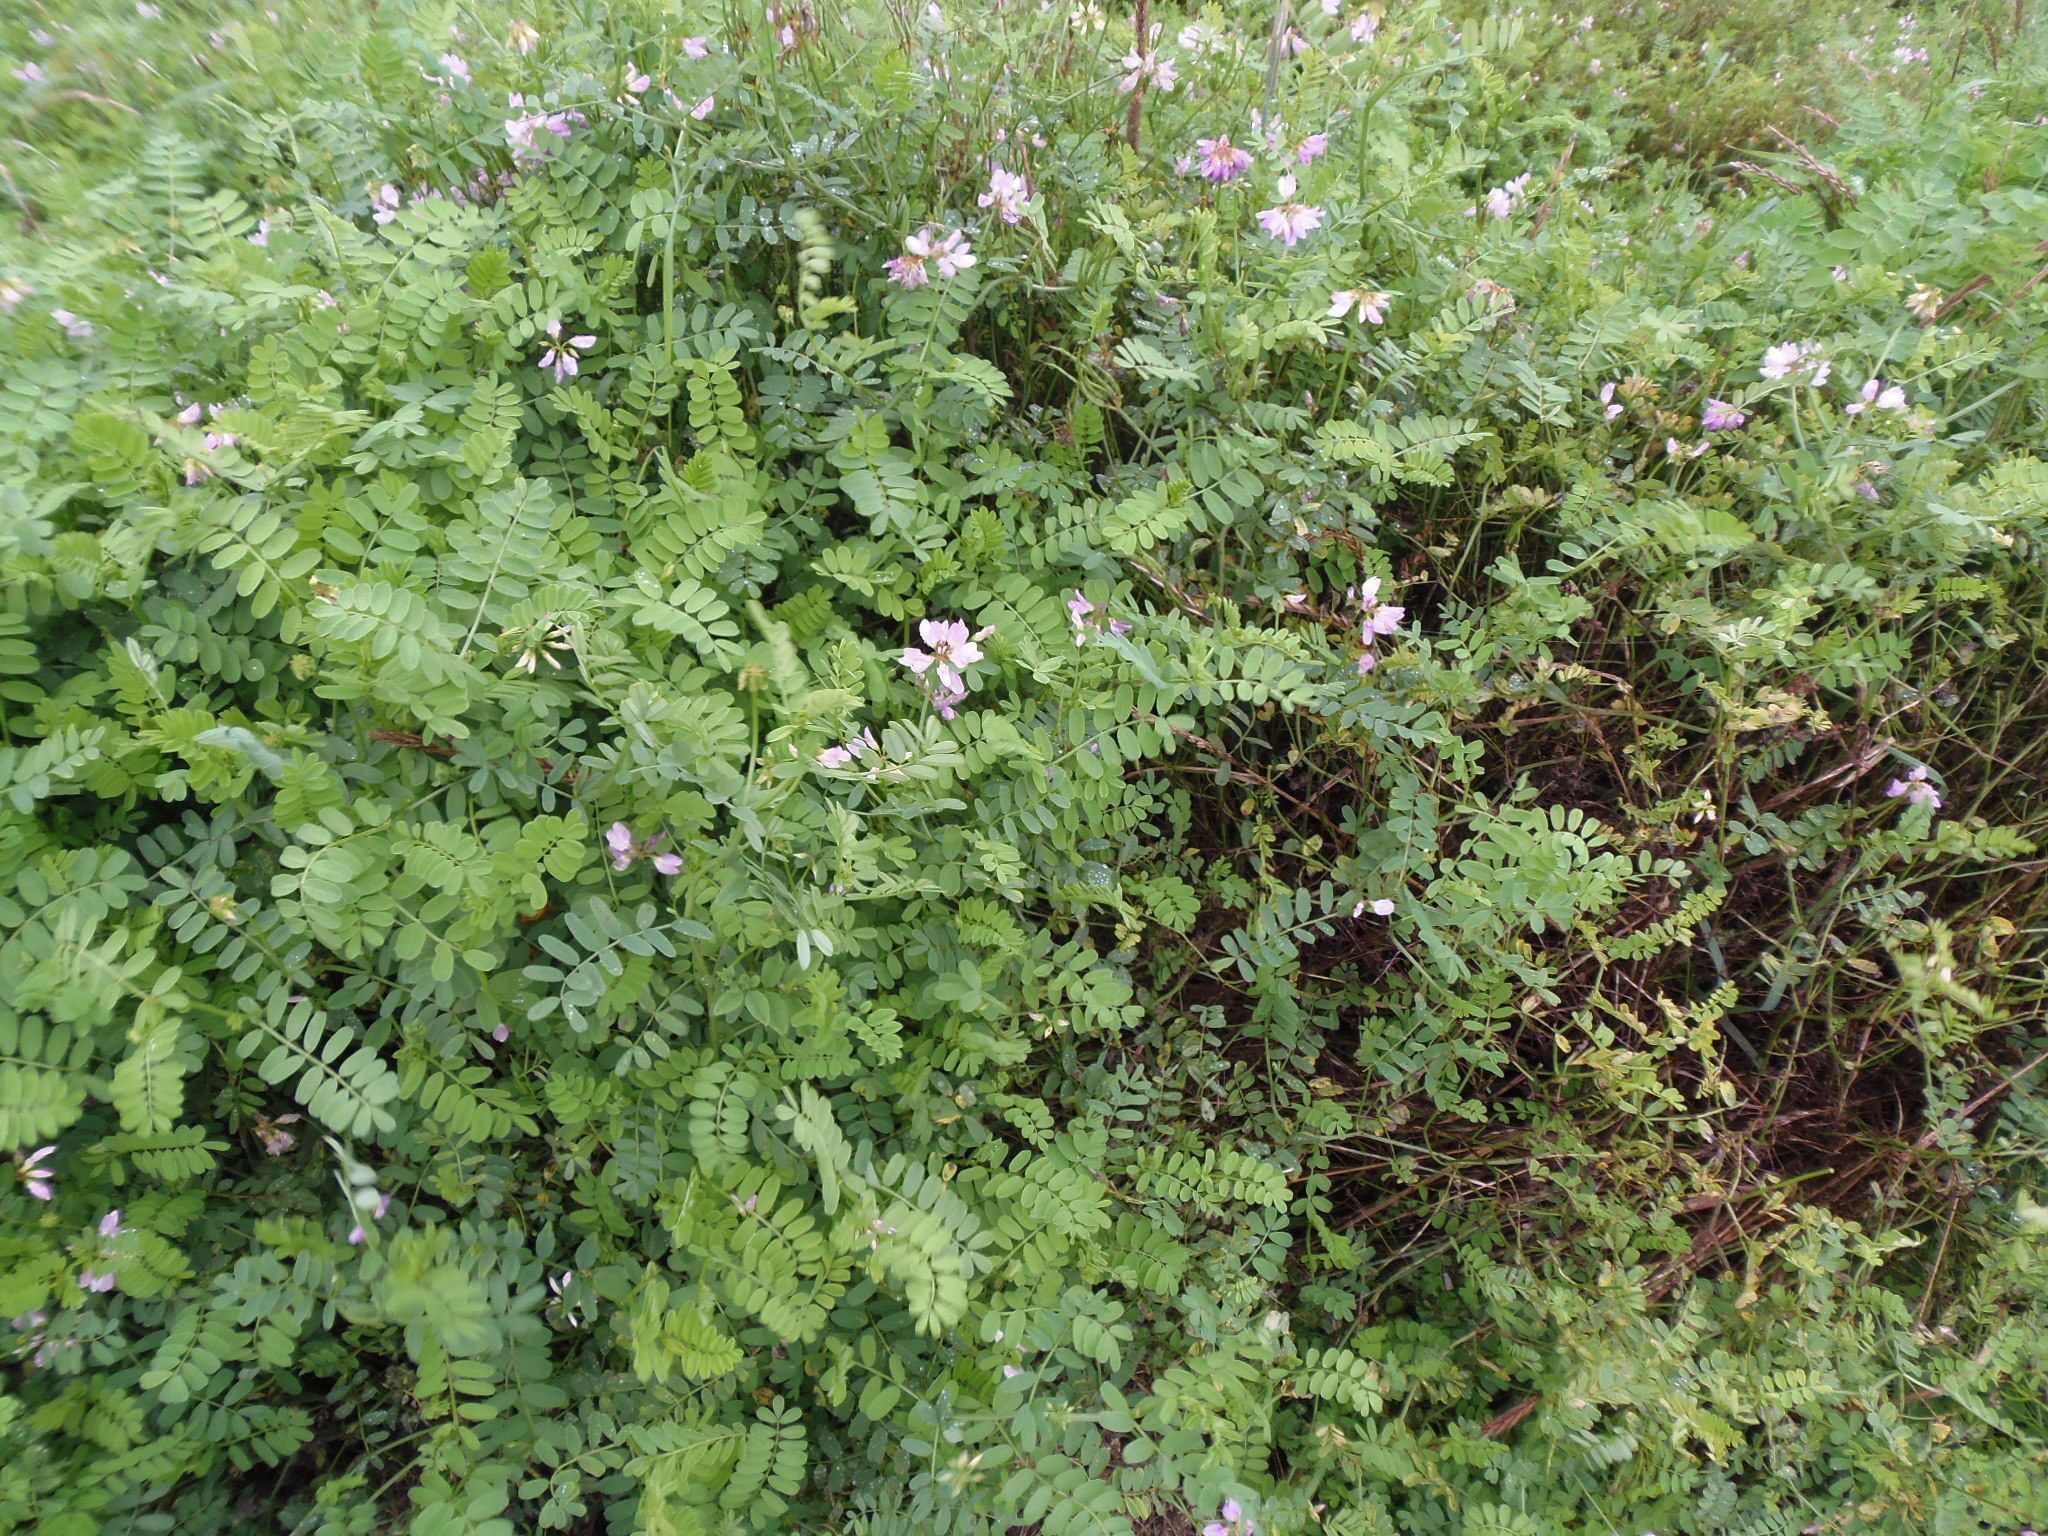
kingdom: Plantae
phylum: Tracheophyta
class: Magnoliopsida
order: Fabales
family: Fabaceae
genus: Coronilla
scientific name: Coronilla varia
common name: Crownvetch
